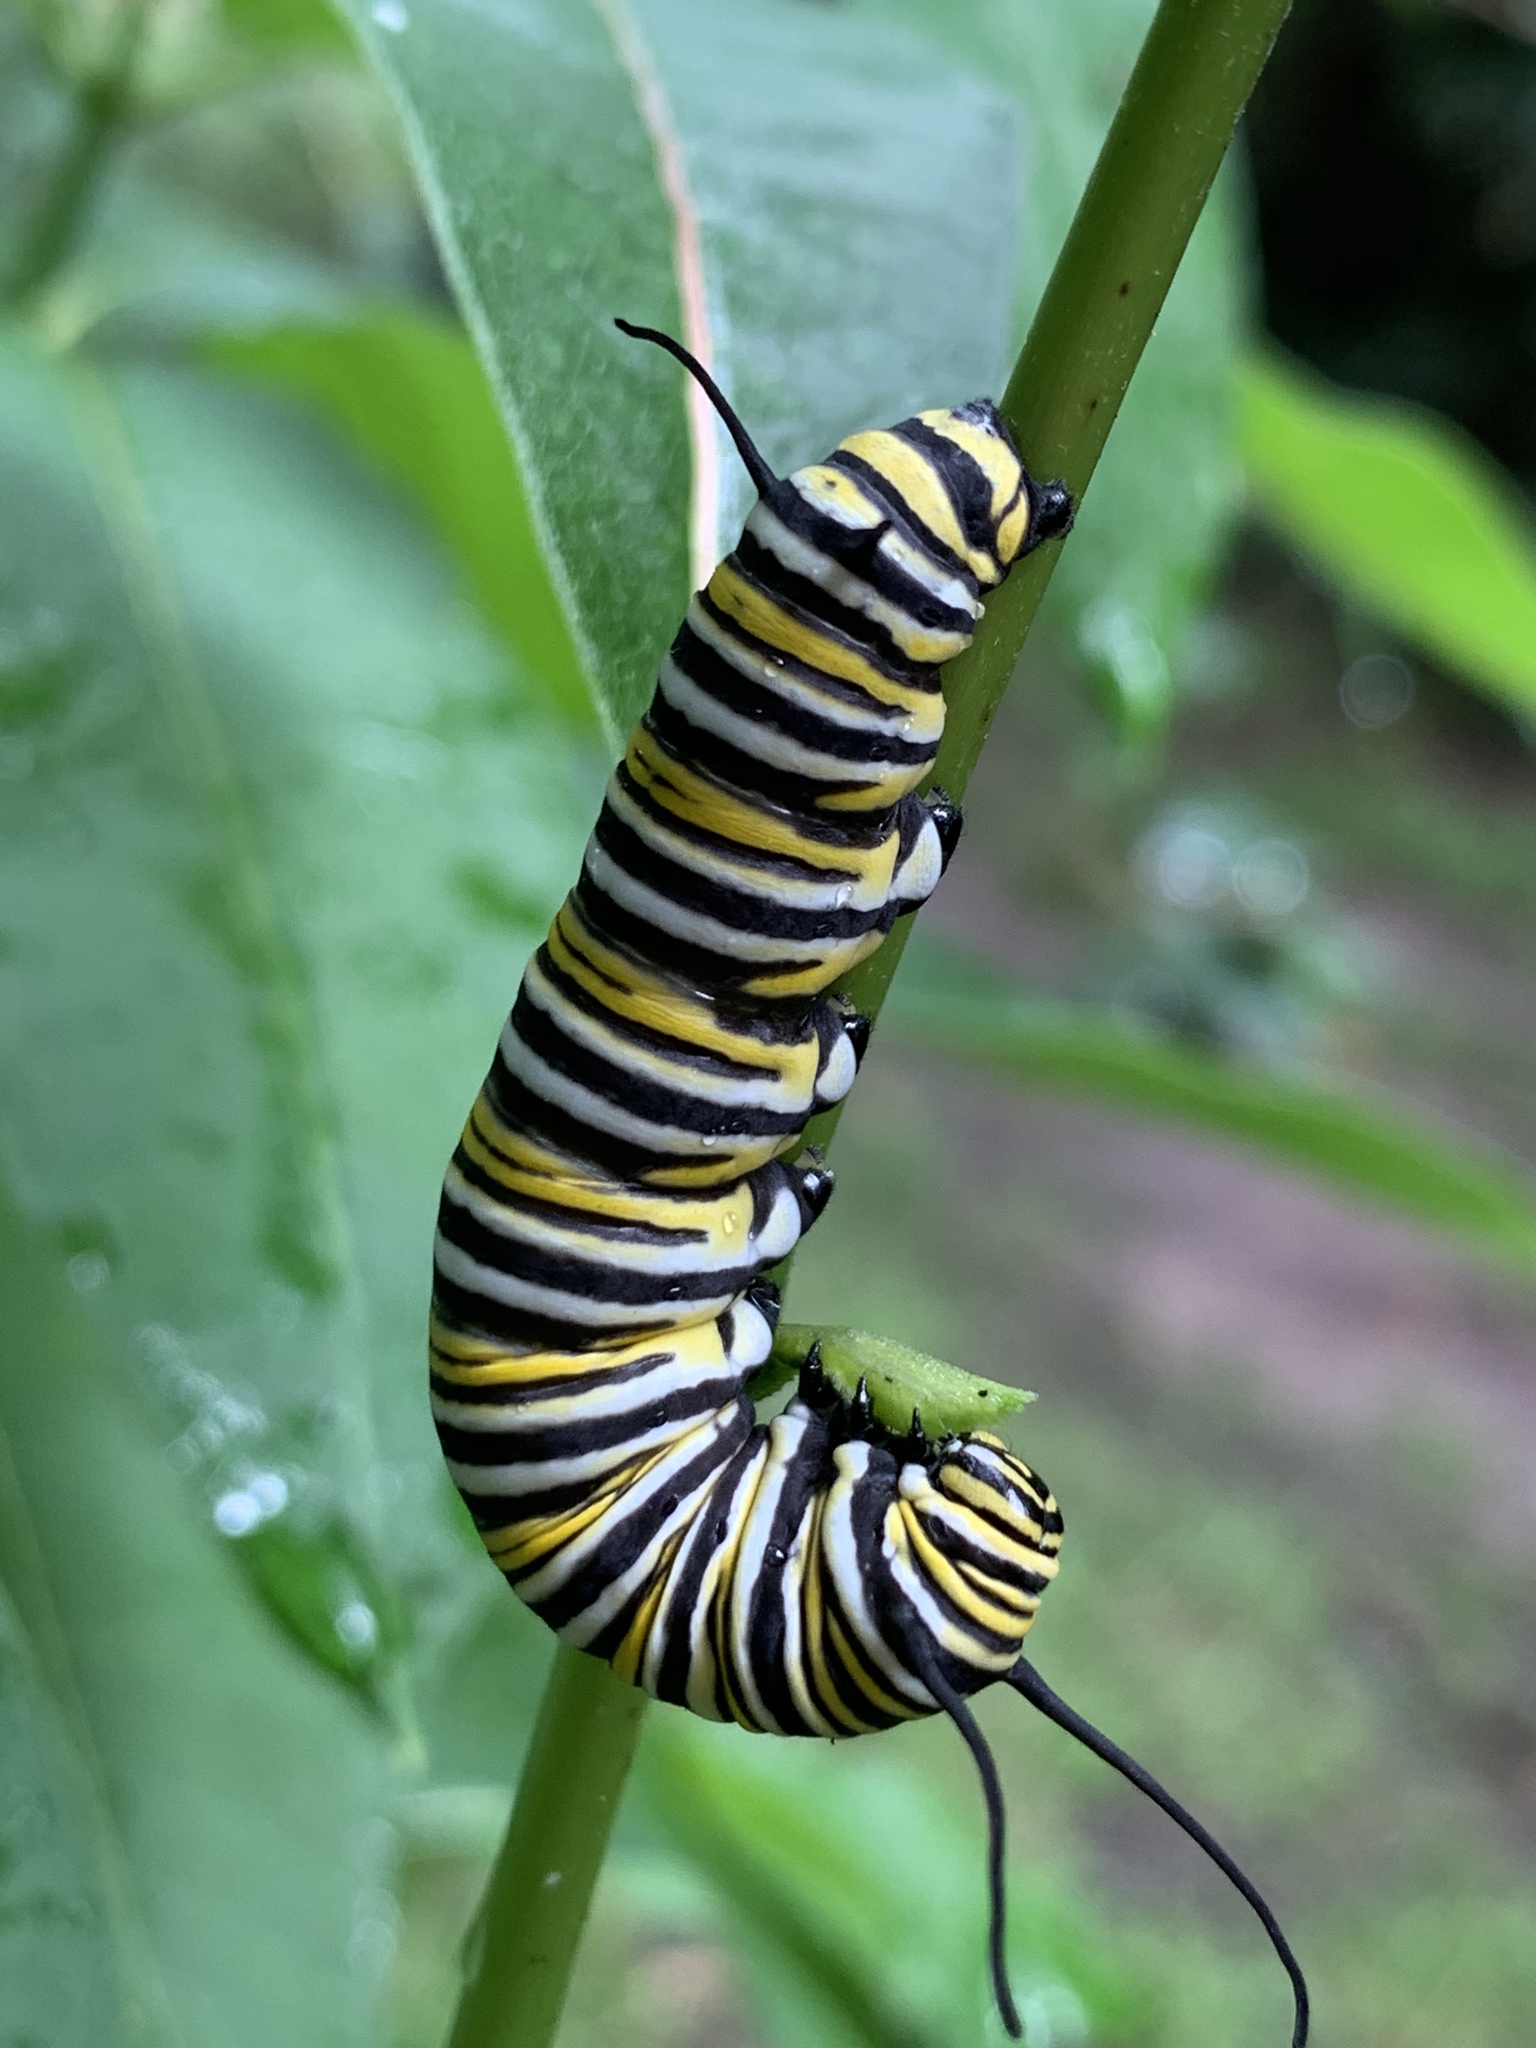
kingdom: Animalia
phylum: Arthropoda
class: Insecta
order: Lepidoptera
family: Nymphalidae
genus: Danaus
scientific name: Danaus plexippus
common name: Monarch
